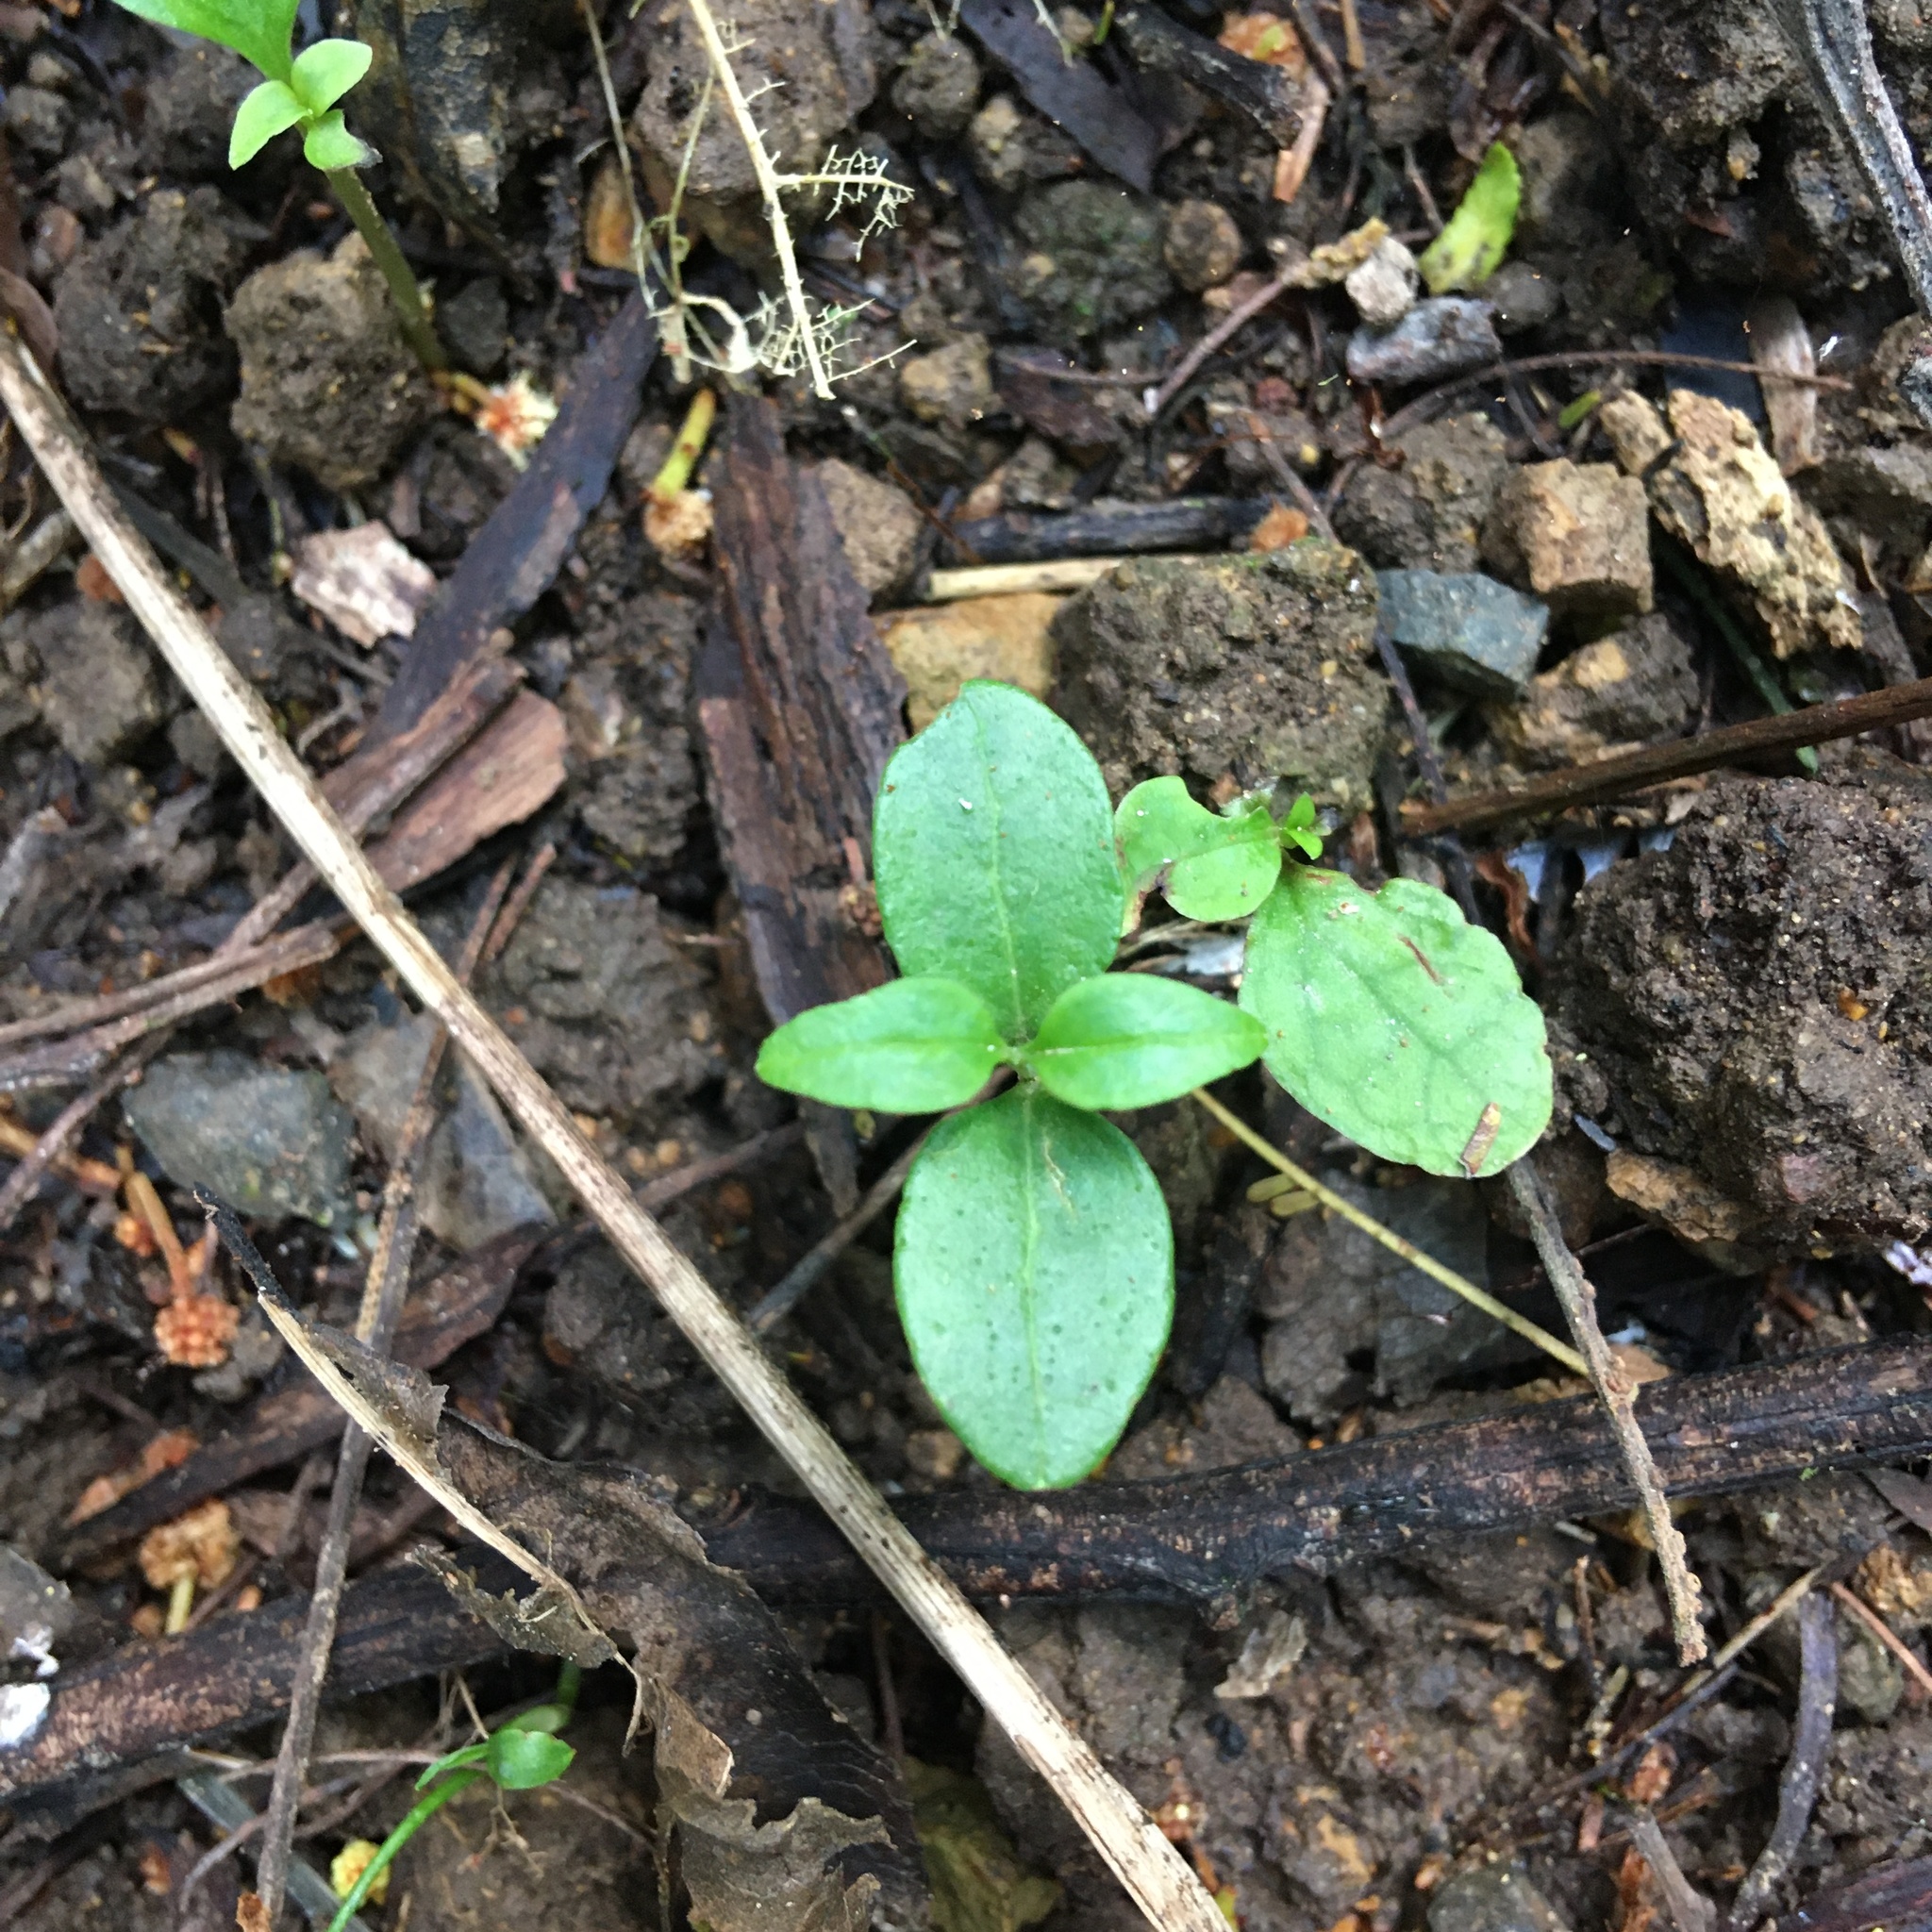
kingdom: Plantae
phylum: Tracheophyta
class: Magnoliopsida
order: Lamiales
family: Oleaceae
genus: Ligustrum
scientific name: Ligustrum lucidum
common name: Glossy privet
